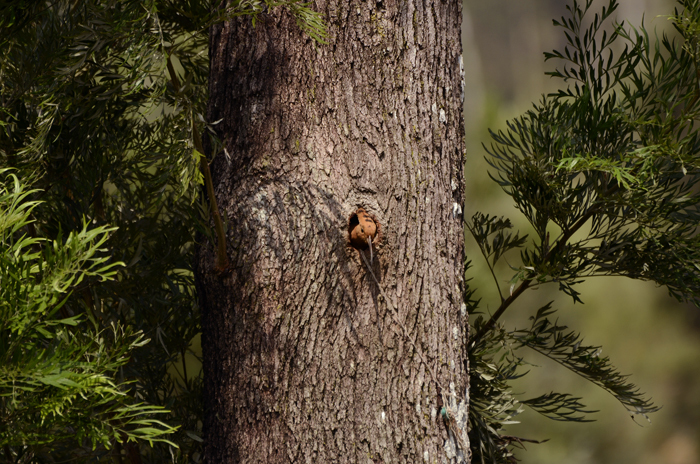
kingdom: Animalia
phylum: Chordata
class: Aves
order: Bucerotiformes
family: Upupidae
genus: Upupa
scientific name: Upupa epops
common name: Eurasian hoopoe
